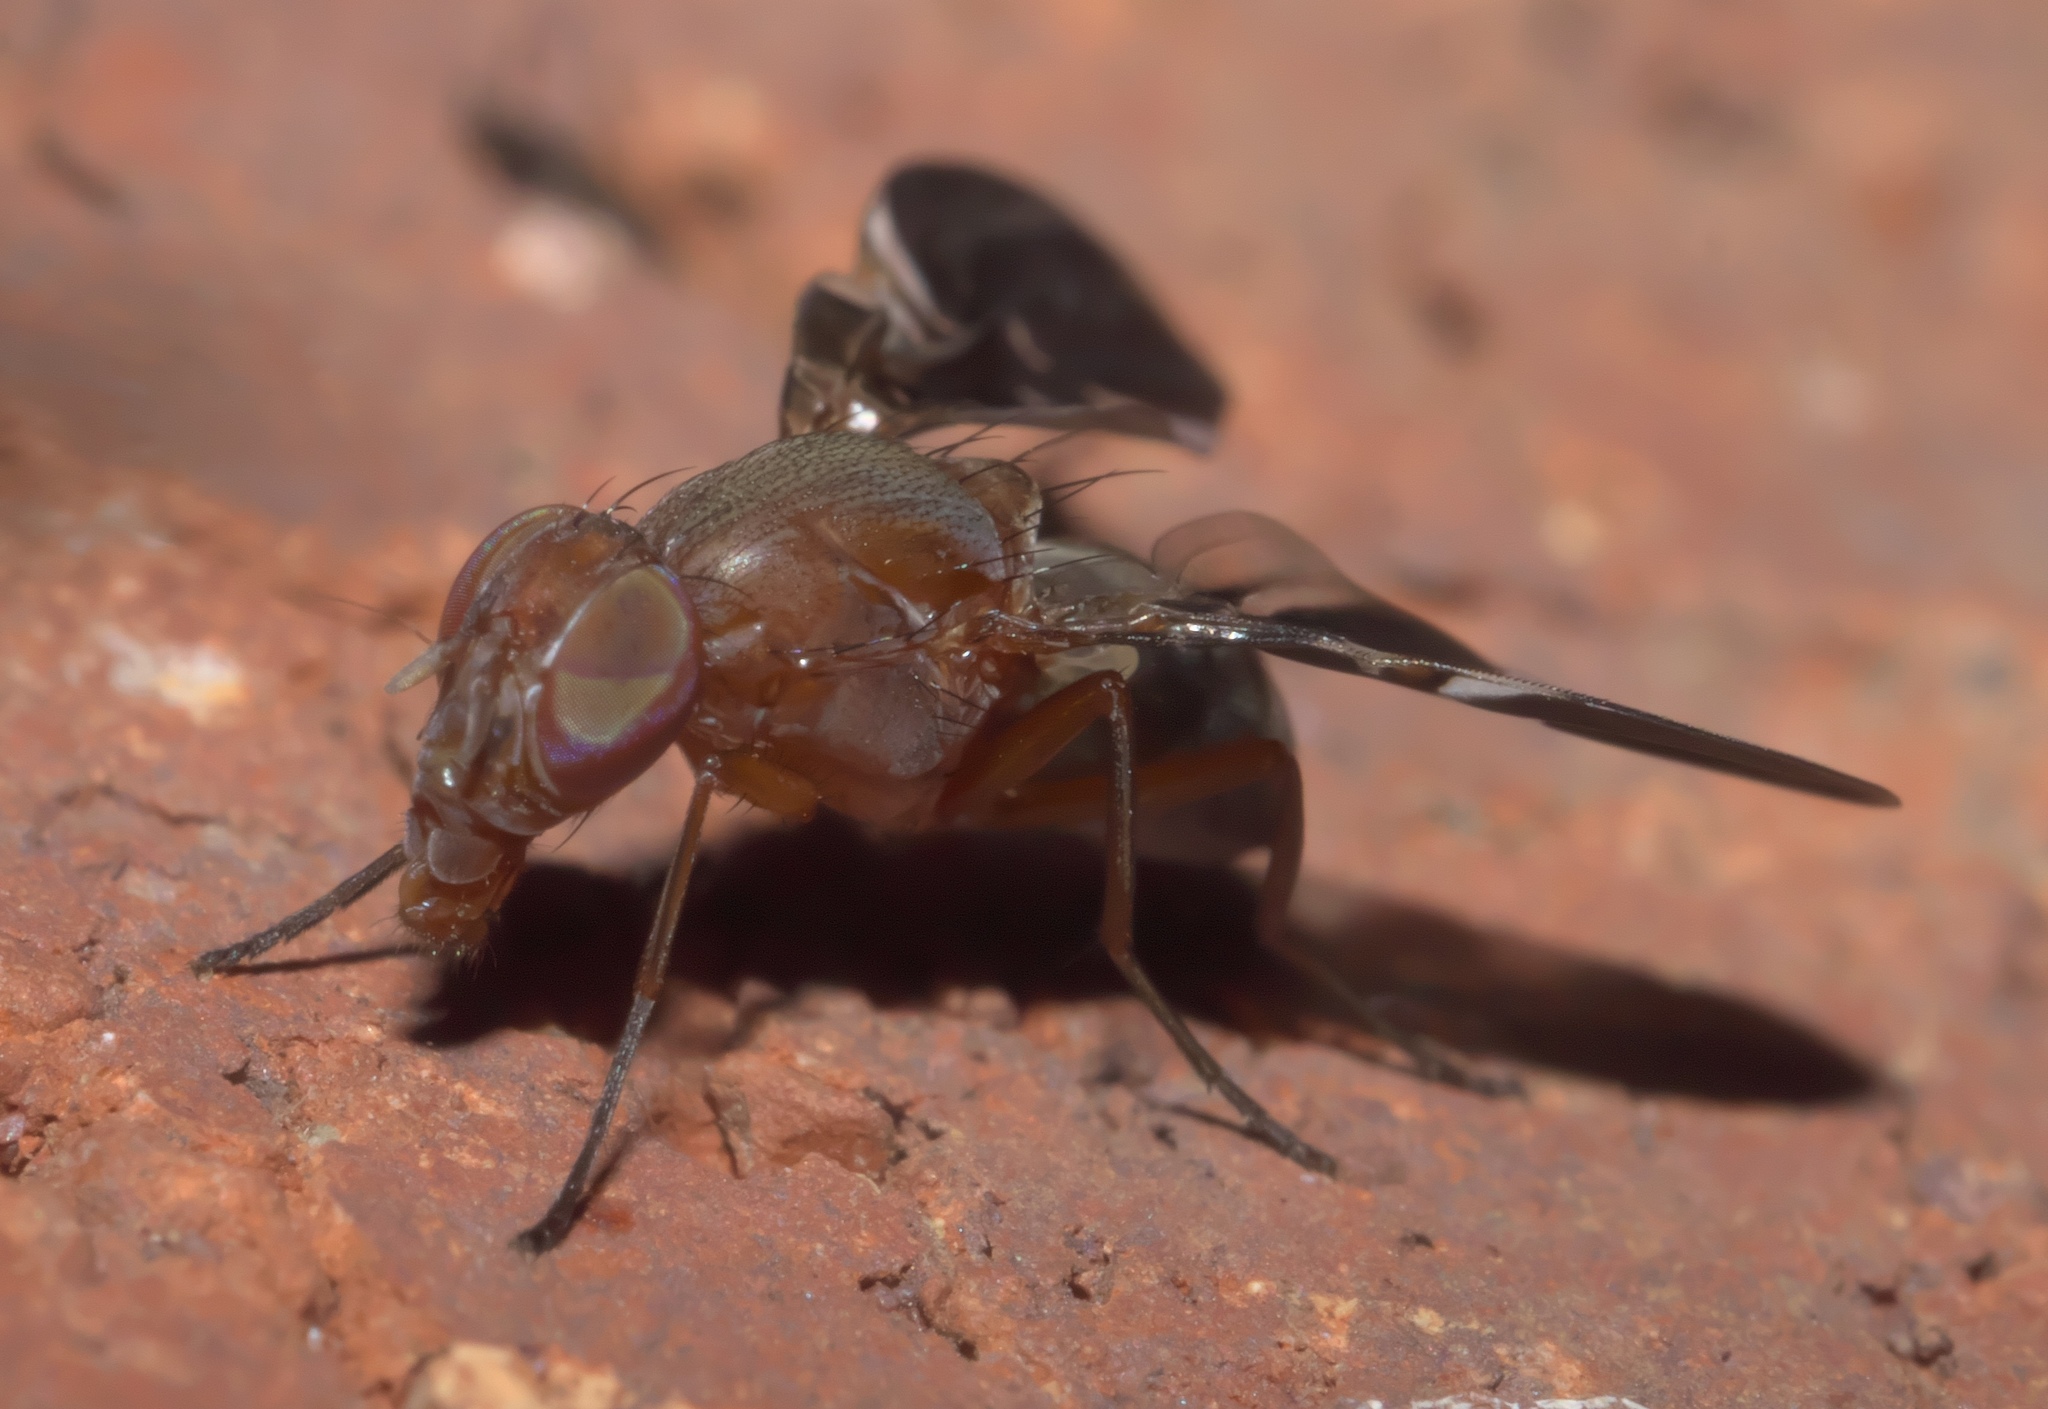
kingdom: Animalia
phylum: Arthropoda
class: Insecta
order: Diptera
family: Ulidiidae
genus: Delphinia
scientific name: Delphinia picta
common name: Common picture-winged fly
